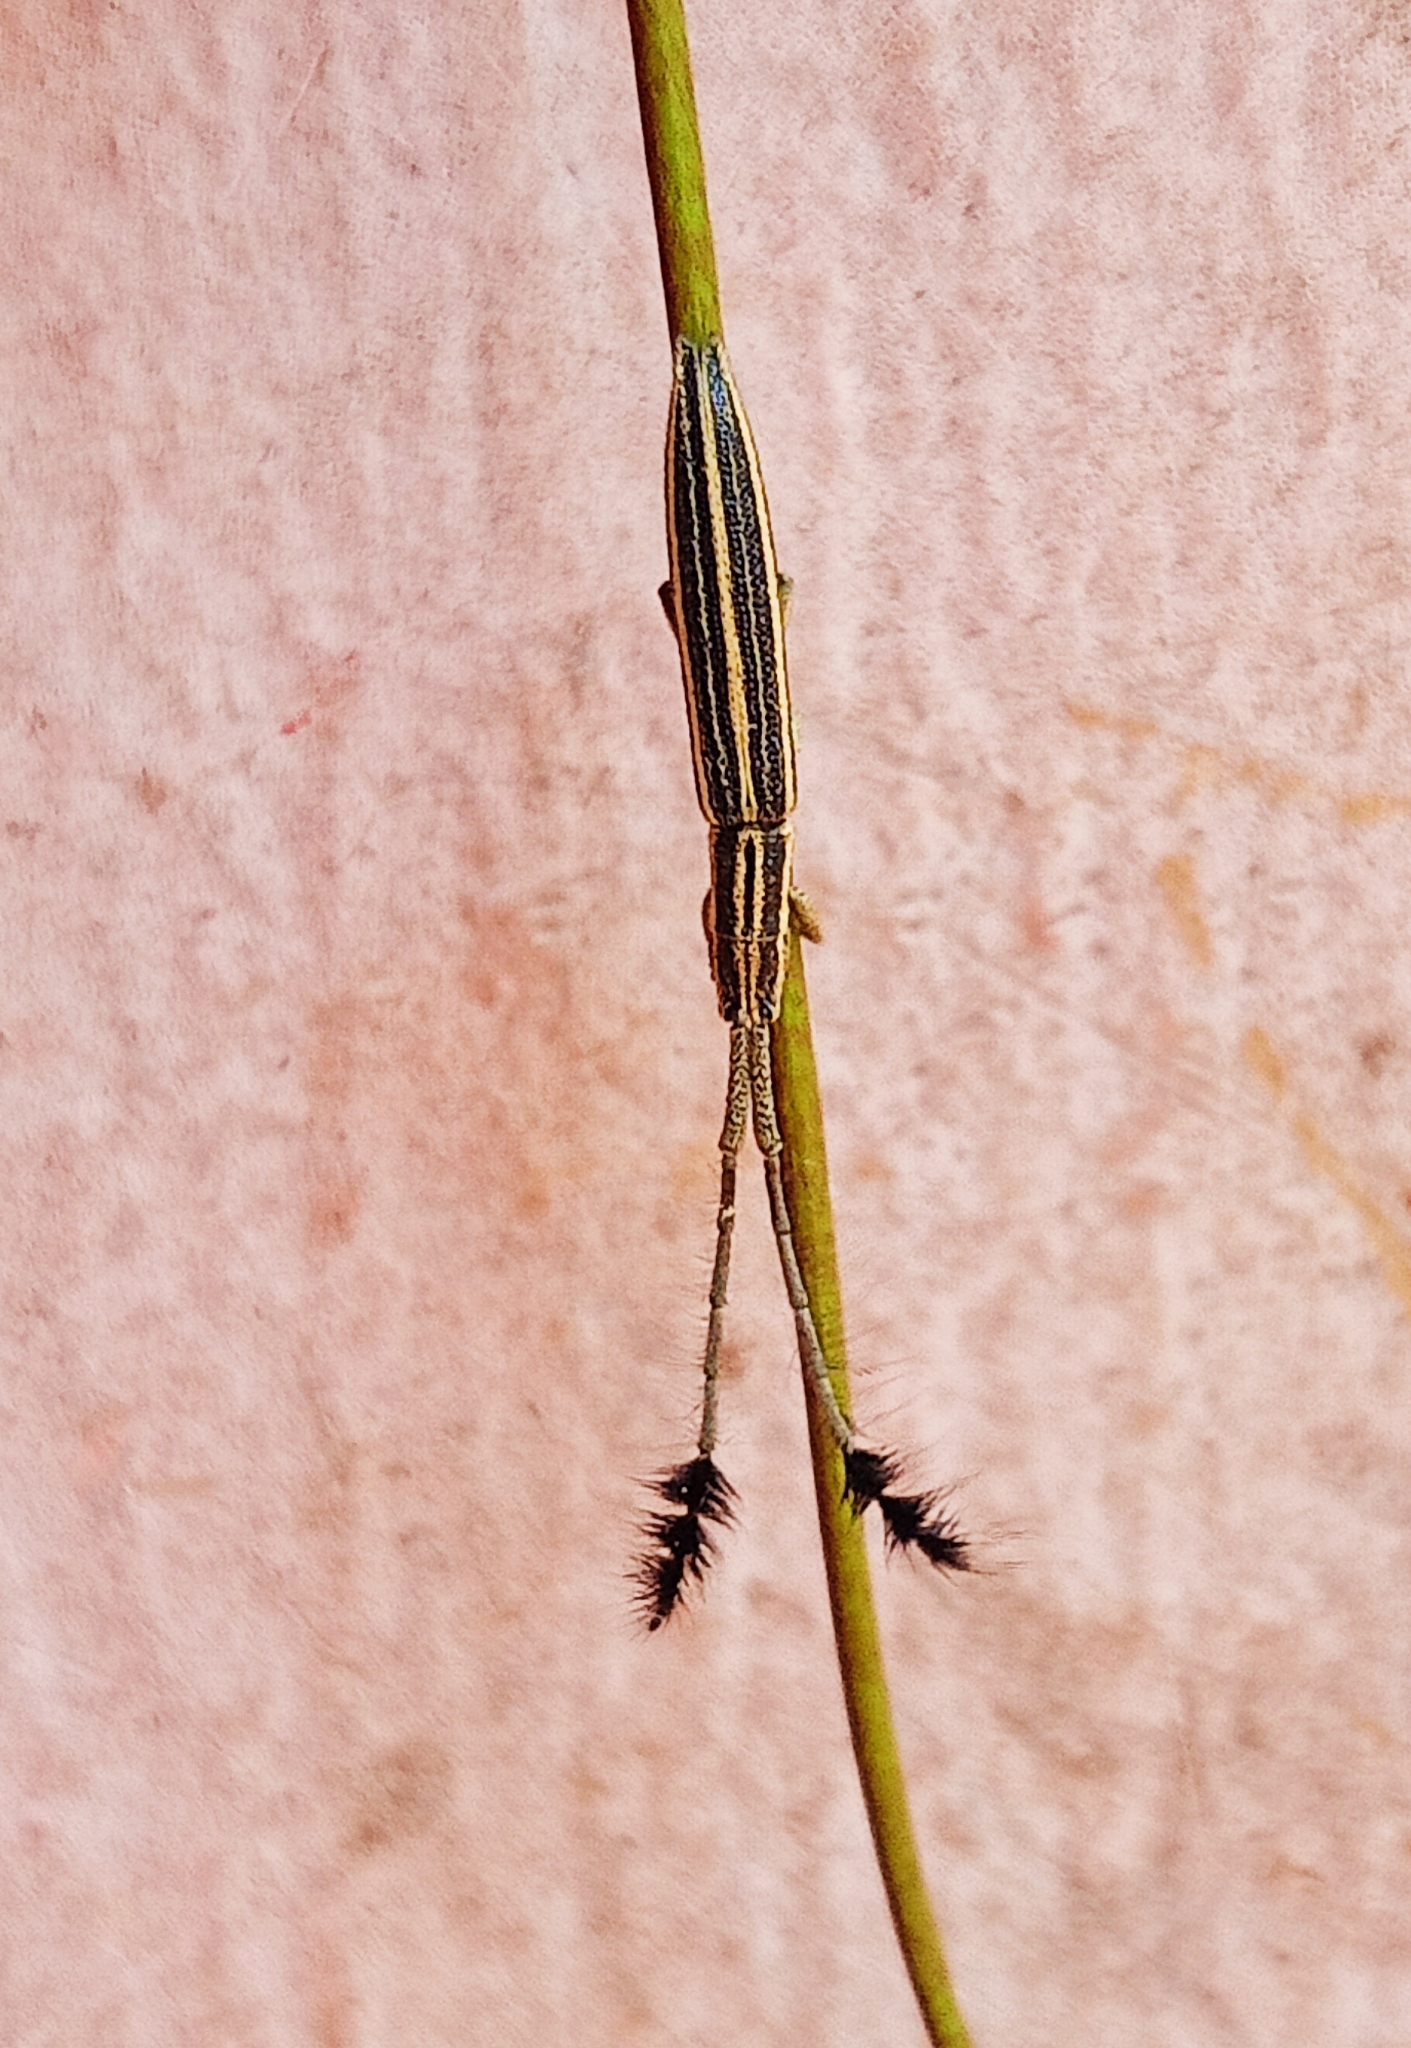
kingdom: Animalia
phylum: Arthropoda
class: Insecta
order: Coleoptera
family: Cerambycidae
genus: Eucomatocera
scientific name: Eucomatocera vittata
